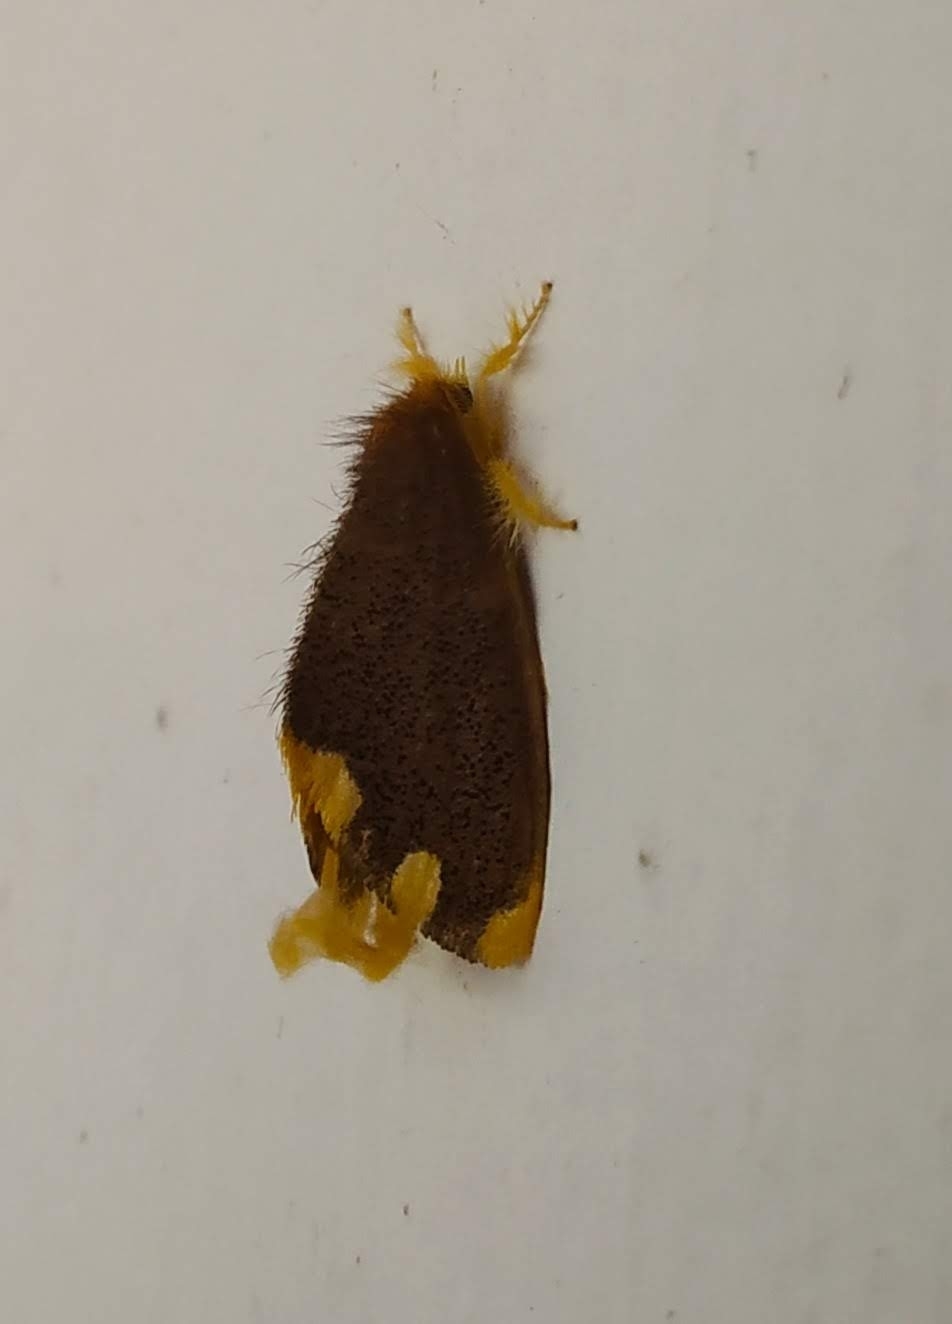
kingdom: Animalia
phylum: Arthropoda
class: Insecta
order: Lepidoptera
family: Erebidae
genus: Orvasca
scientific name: Orvasca bicolor
